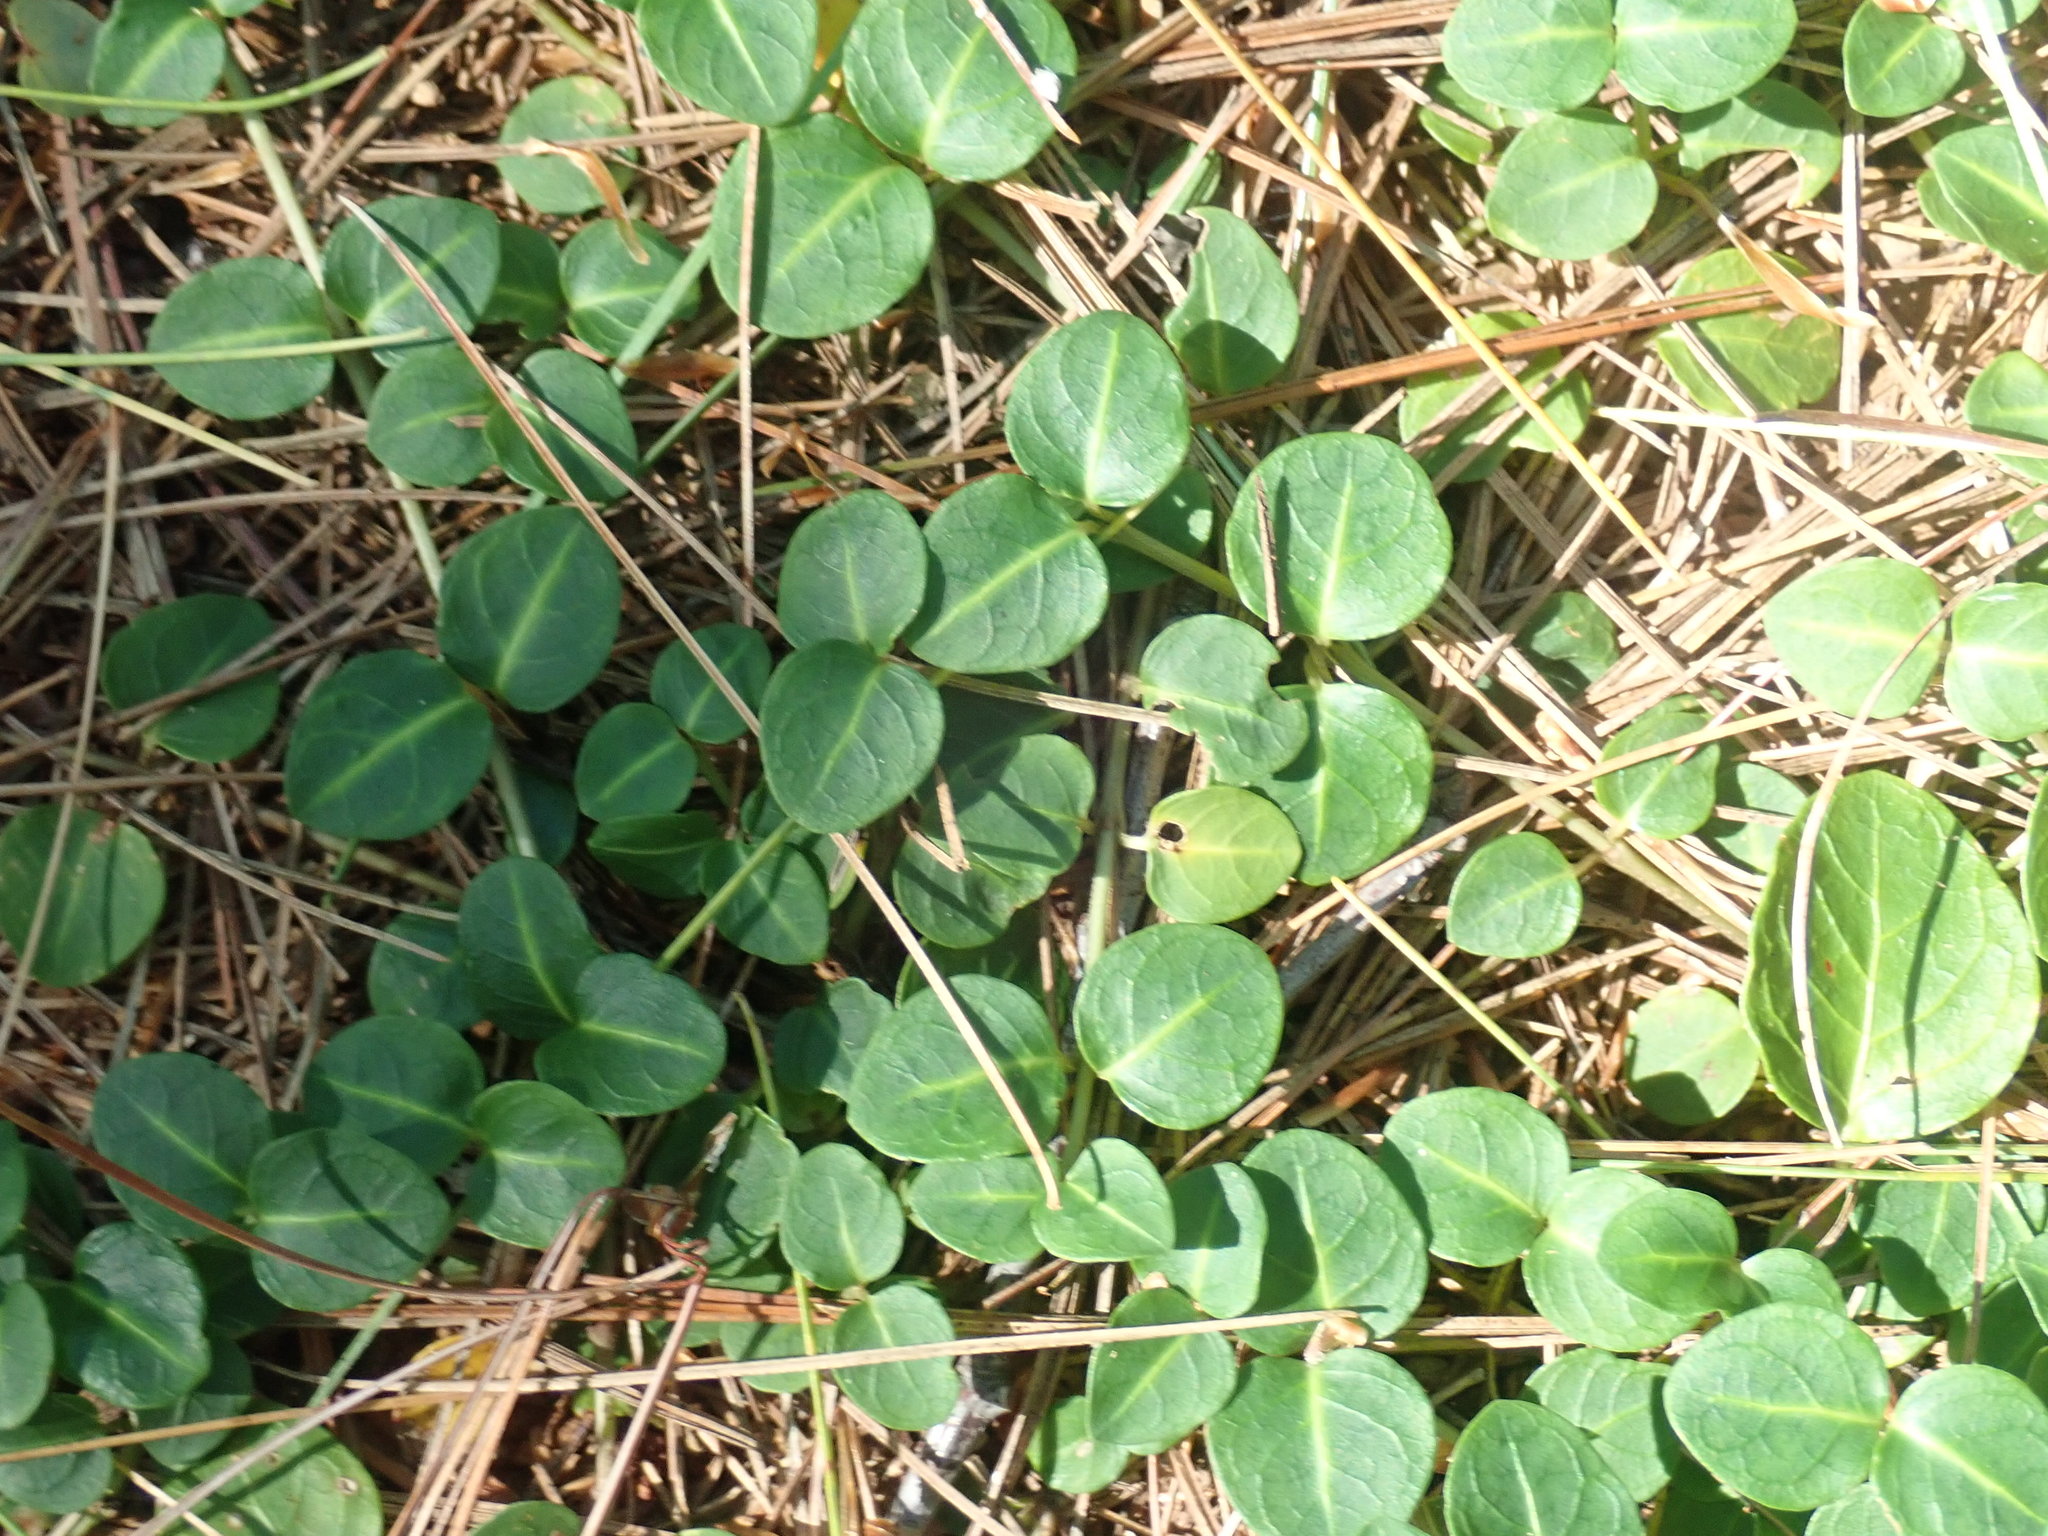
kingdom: Plantae
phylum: Tracheophyta
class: Magnoliopsida
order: Gentianales
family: Rubiaceae
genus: Mitchella
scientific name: Mitchella repens
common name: Partridge-berry
